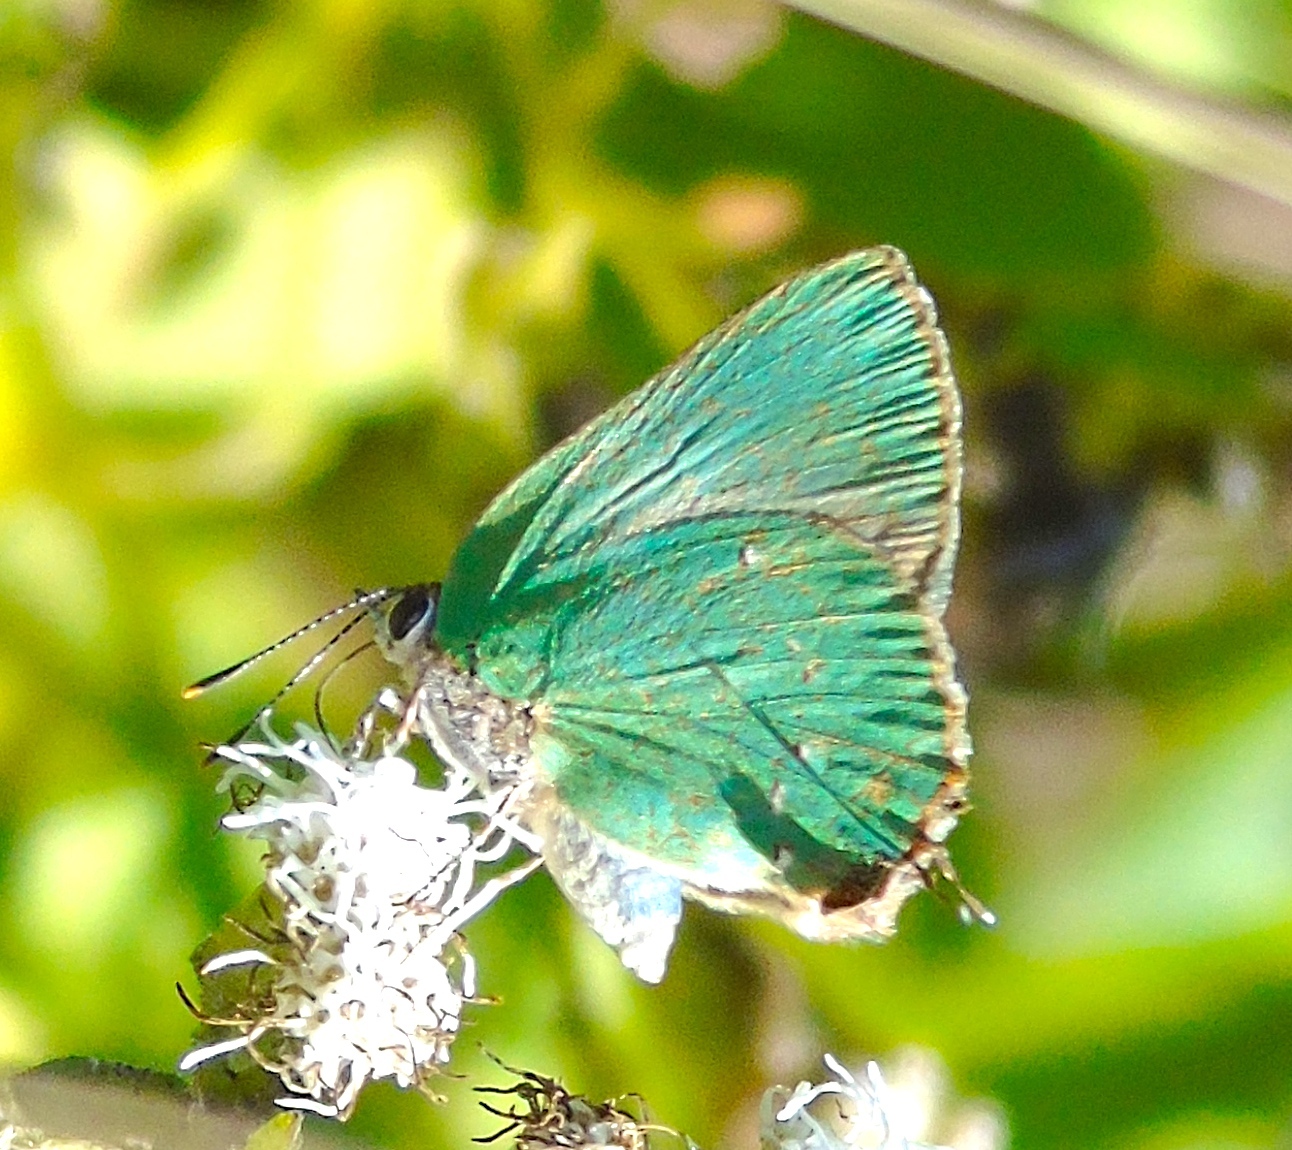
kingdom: Animalia
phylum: Arthropoda
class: Insecta
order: Lepidoptera
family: Lycaenidae
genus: Thecla
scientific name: Thecla herodotus
